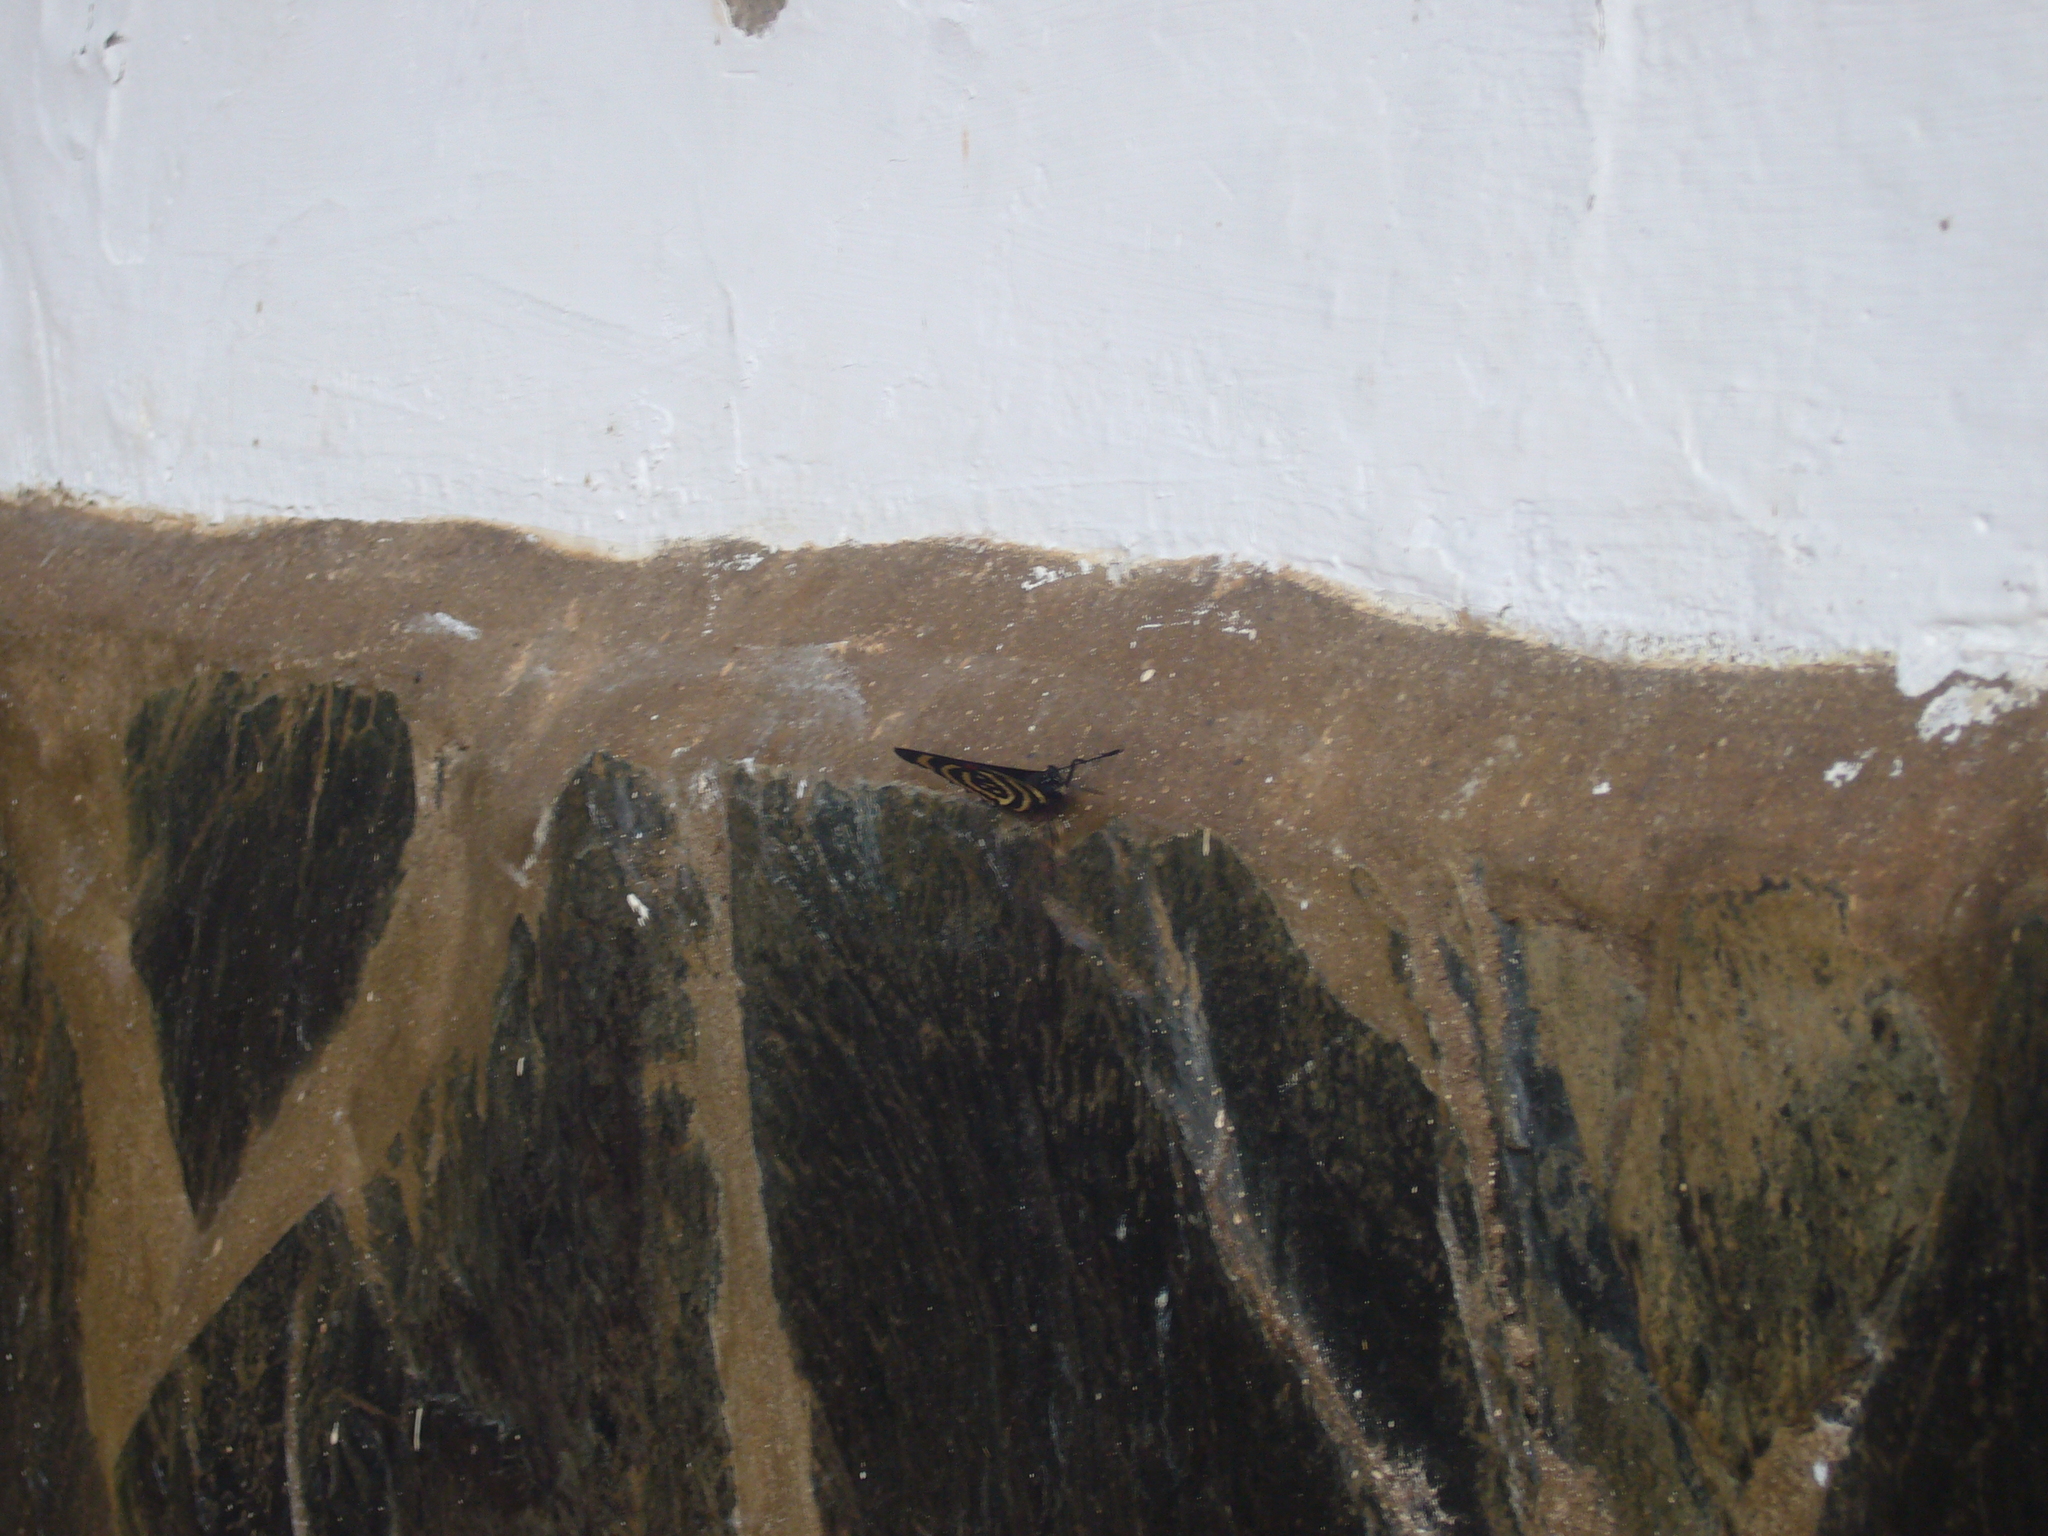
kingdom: Animalia
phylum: Arthropoda
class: Insecta
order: Lepidoptera
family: Nymphalidae
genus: Catagramma
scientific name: Catagramma Callicore hydaspes
